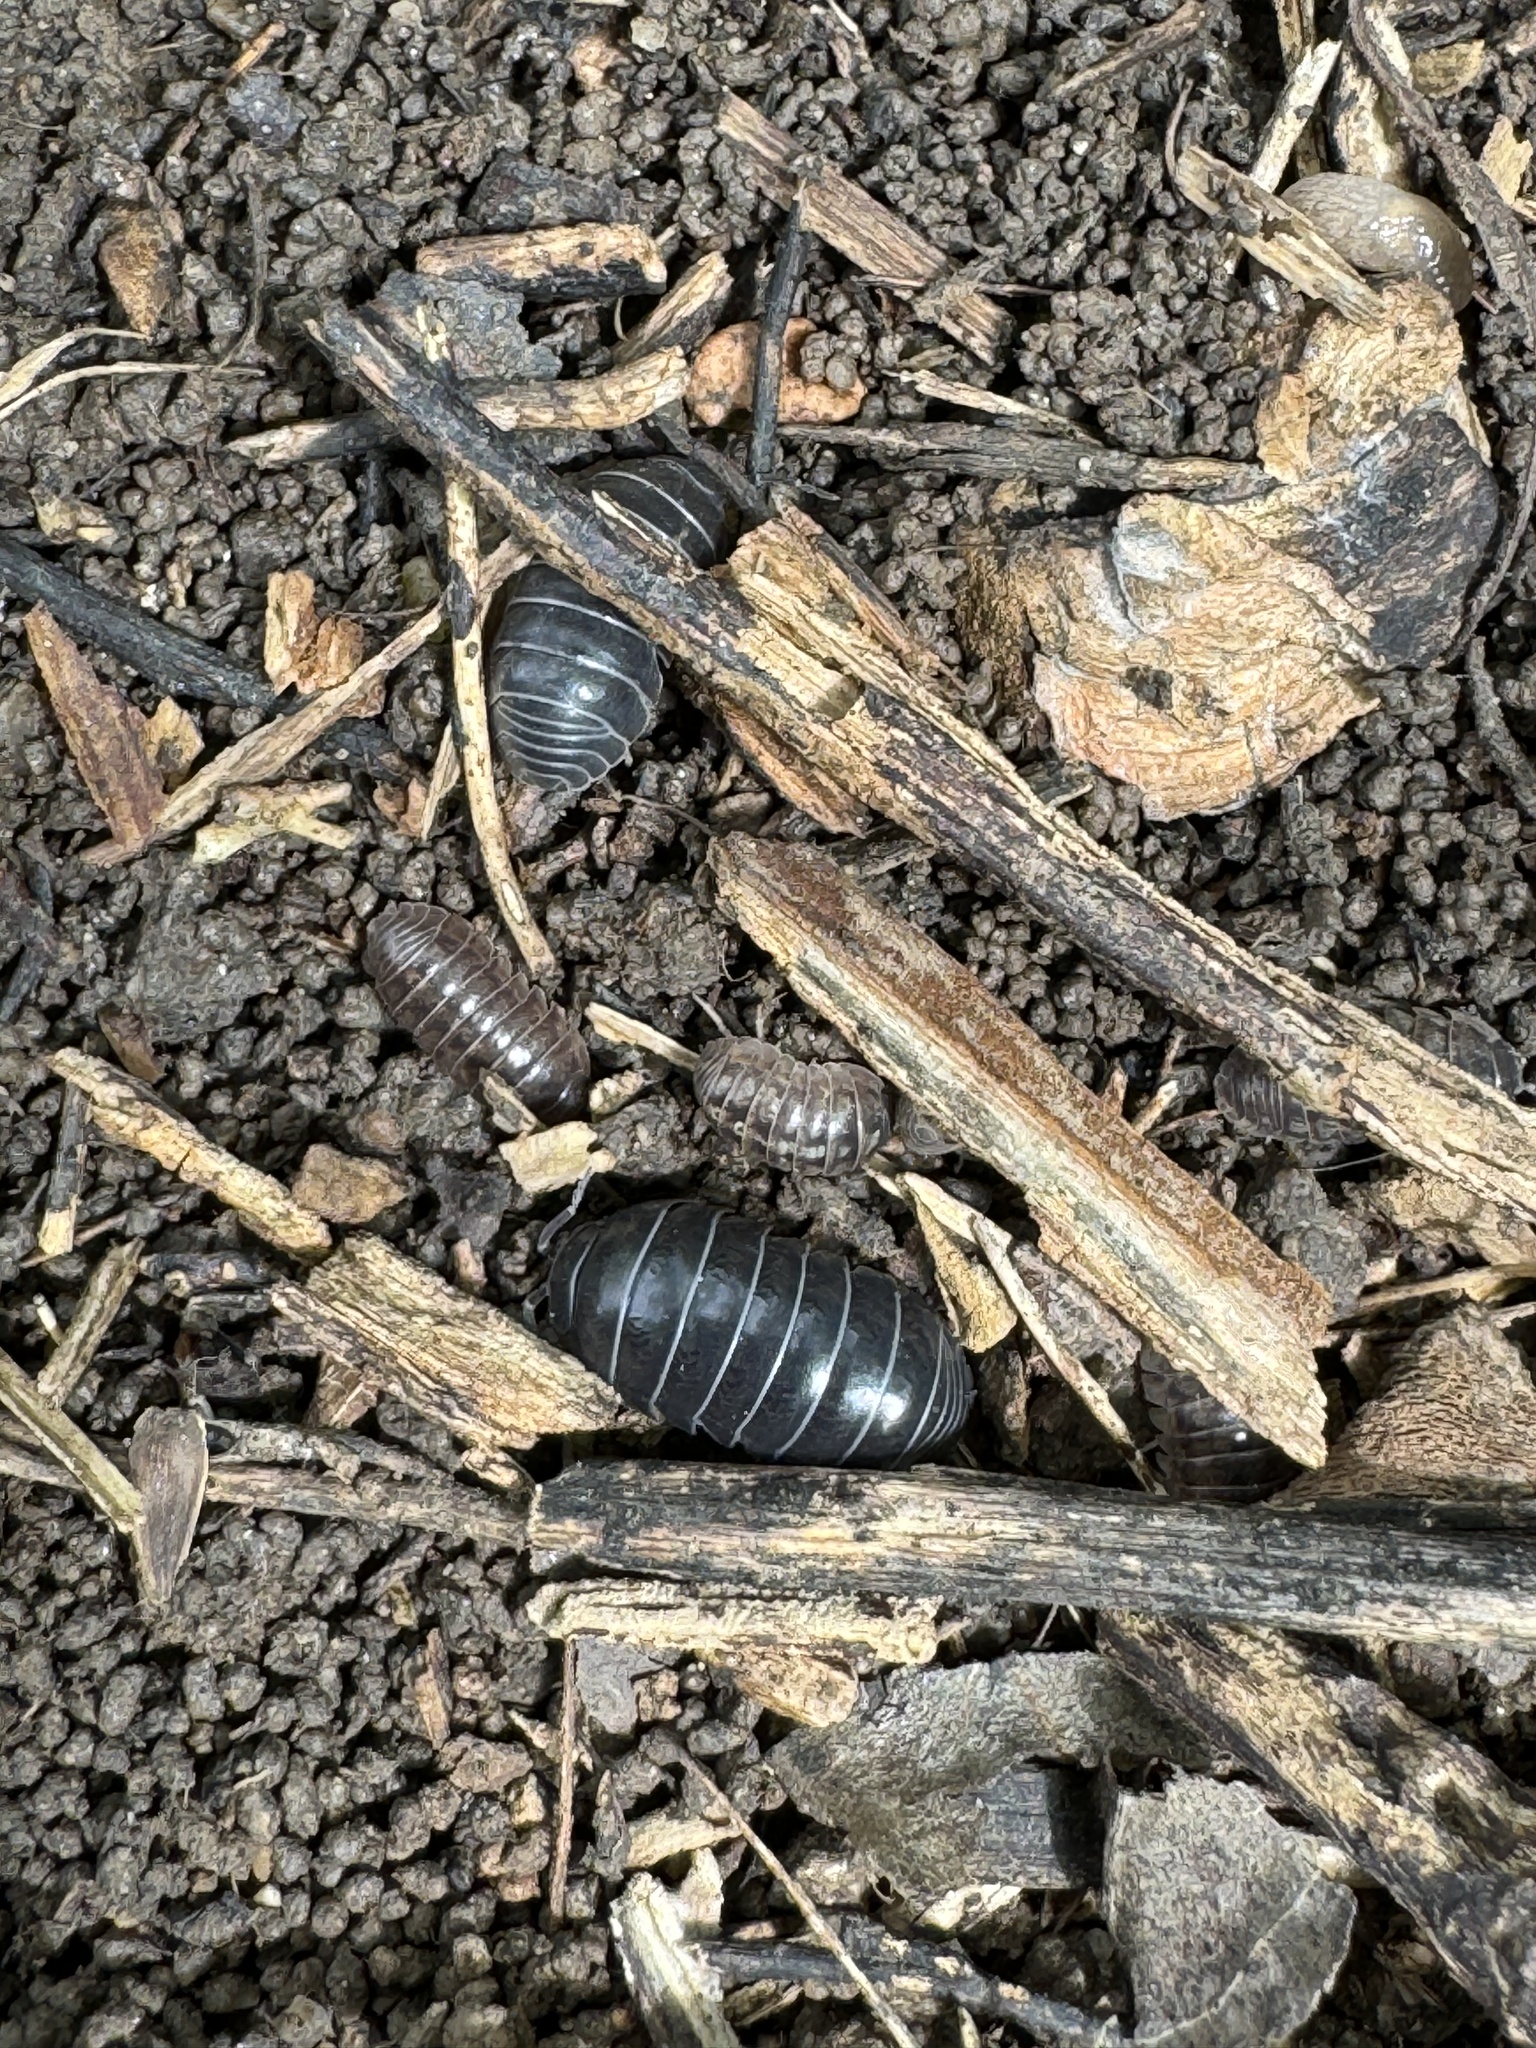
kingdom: Animalia
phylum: Arthropoda
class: Malacostraca
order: Isopoda
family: Porcellionidae
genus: Porcellio
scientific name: Porcellio laevis
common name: Swift woodlouse
